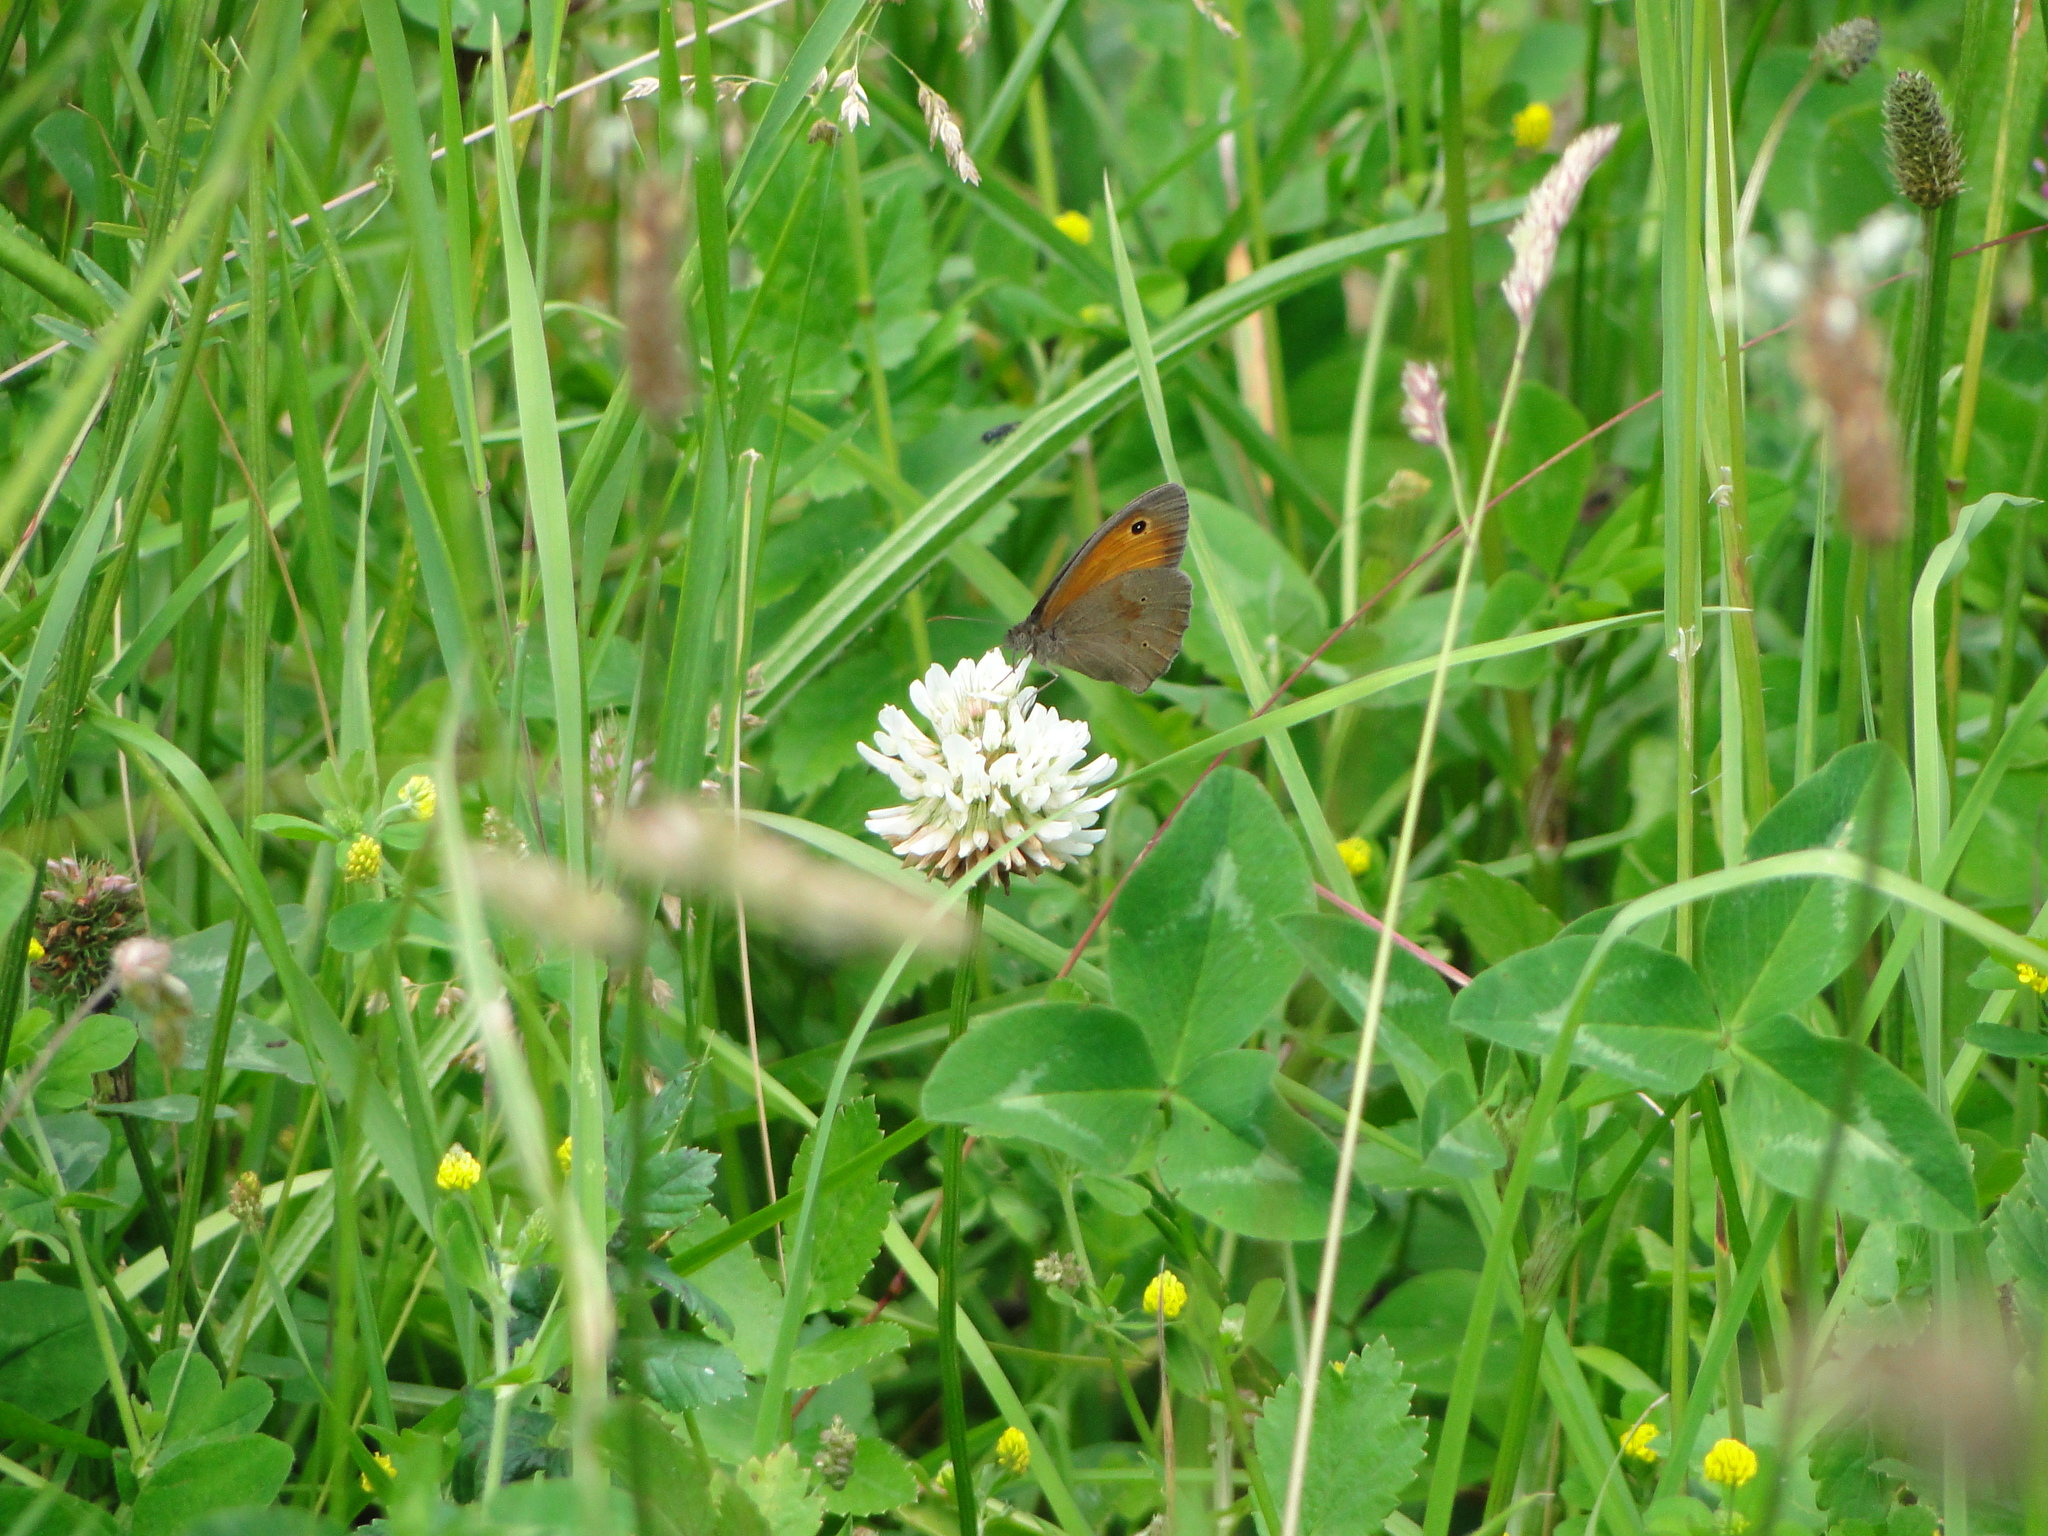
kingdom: Animalia
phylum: Arthropoda
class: Insecta
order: Lepidoptera
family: Nymphalidae
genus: Maniola
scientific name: Maniola jurtina
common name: Meadow brown
